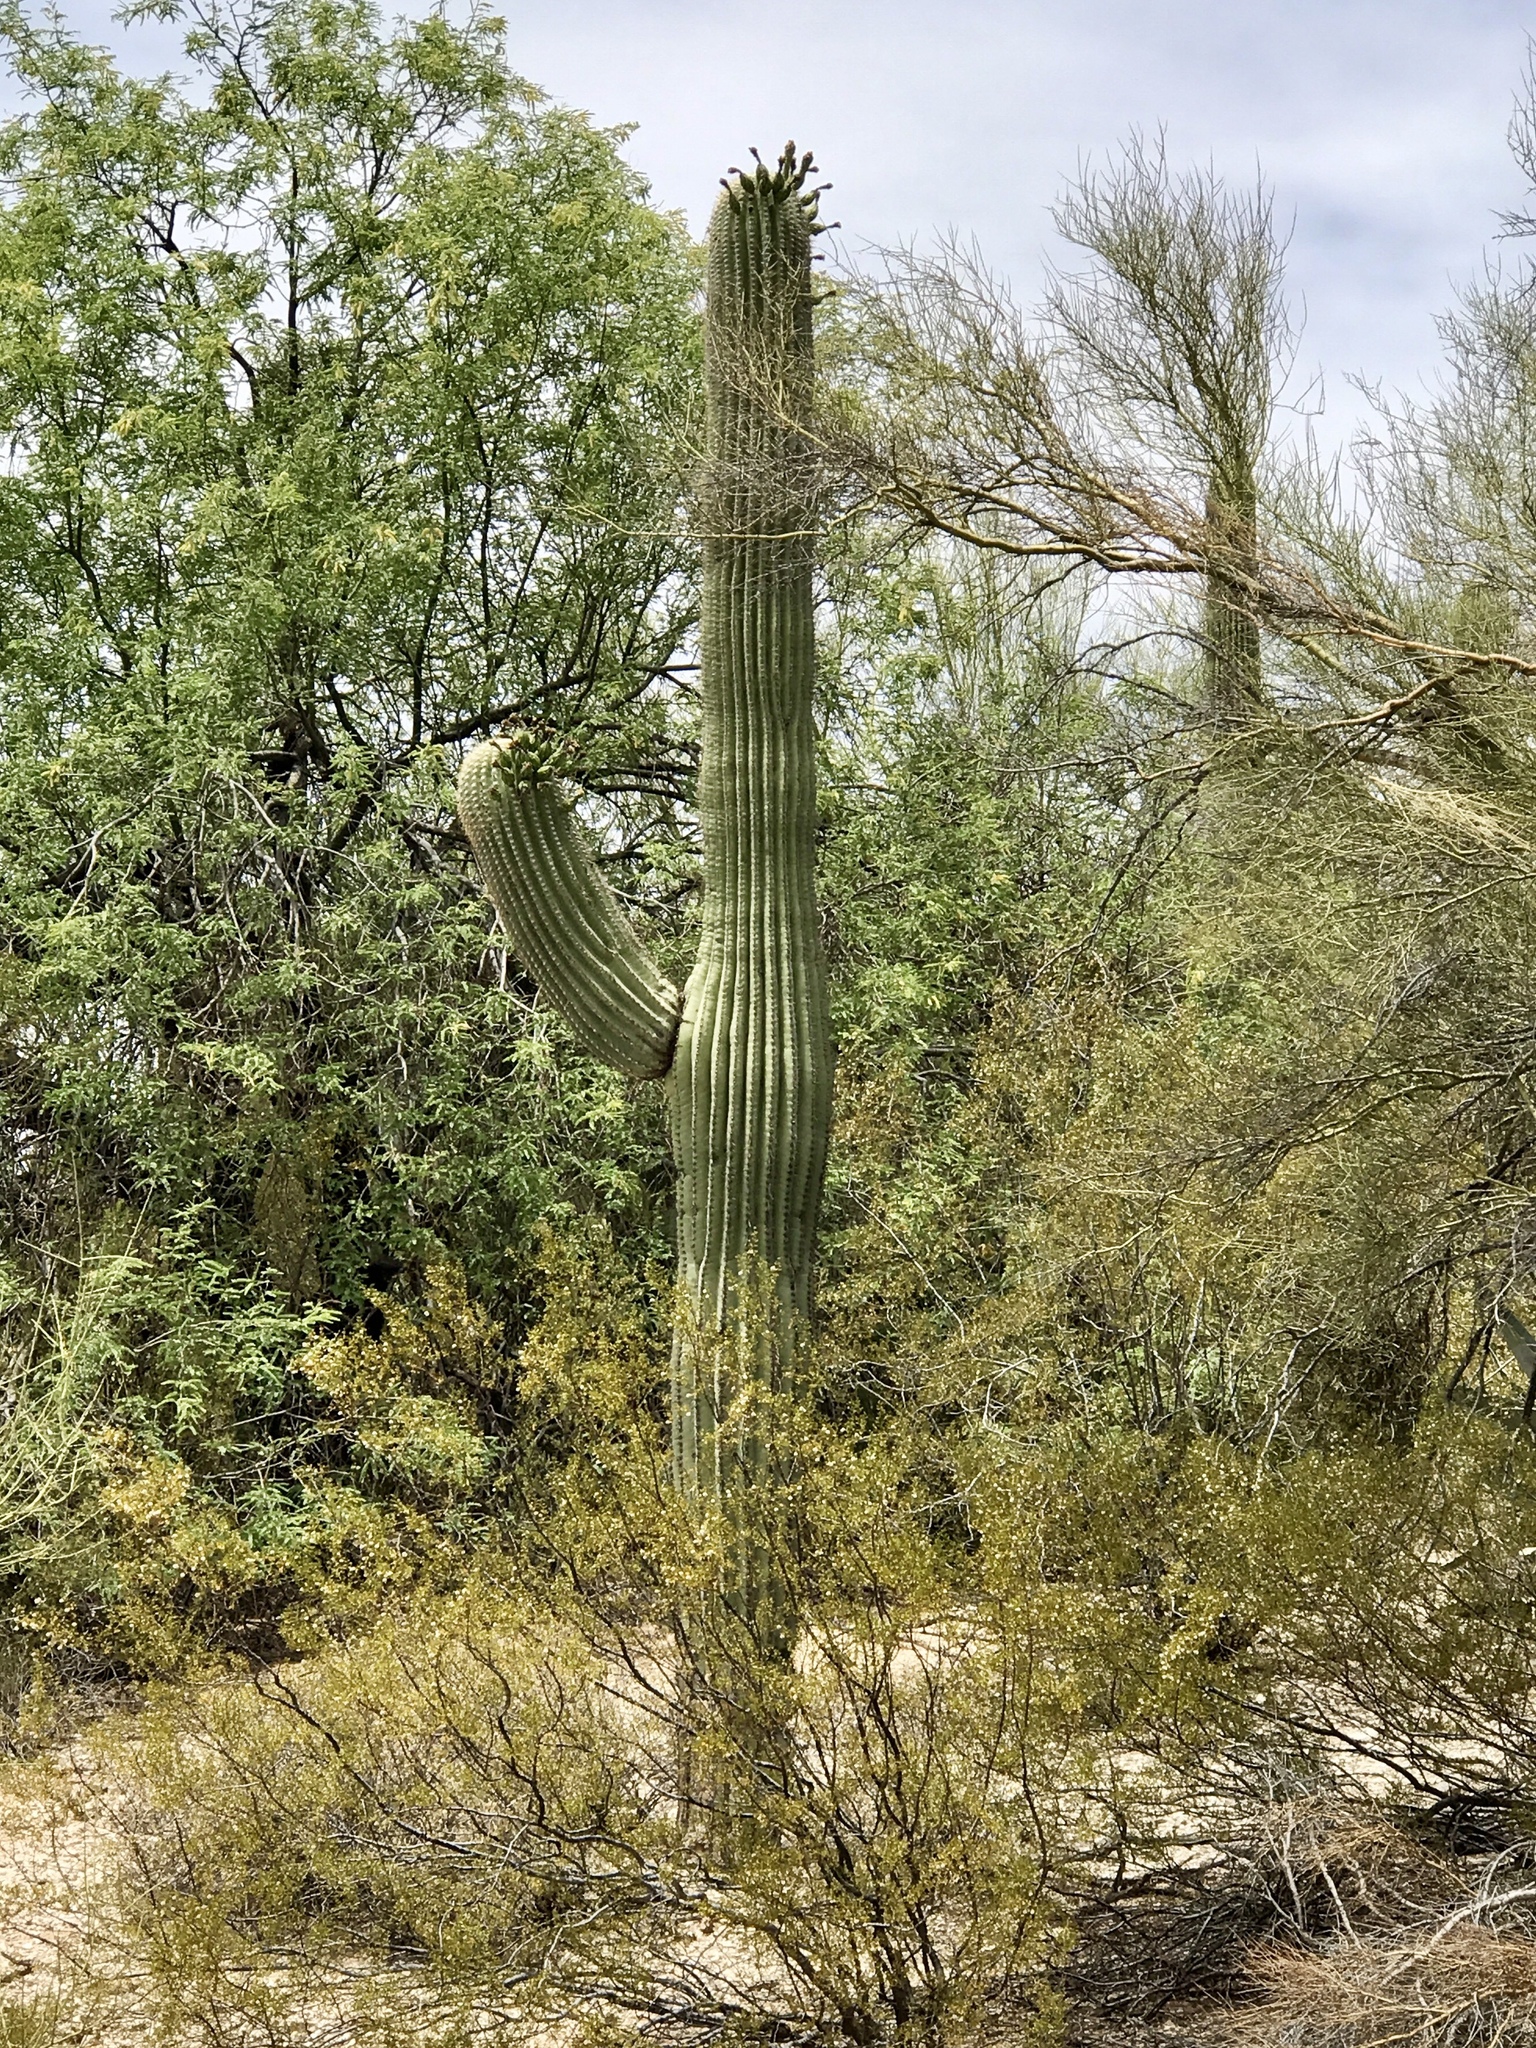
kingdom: Plantae
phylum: Tracheophyta
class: Magnoliopsida
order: Caryophyllales
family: Cactaceae
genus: Carnegiea
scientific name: Carnegiea gigantea
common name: Saguaro
